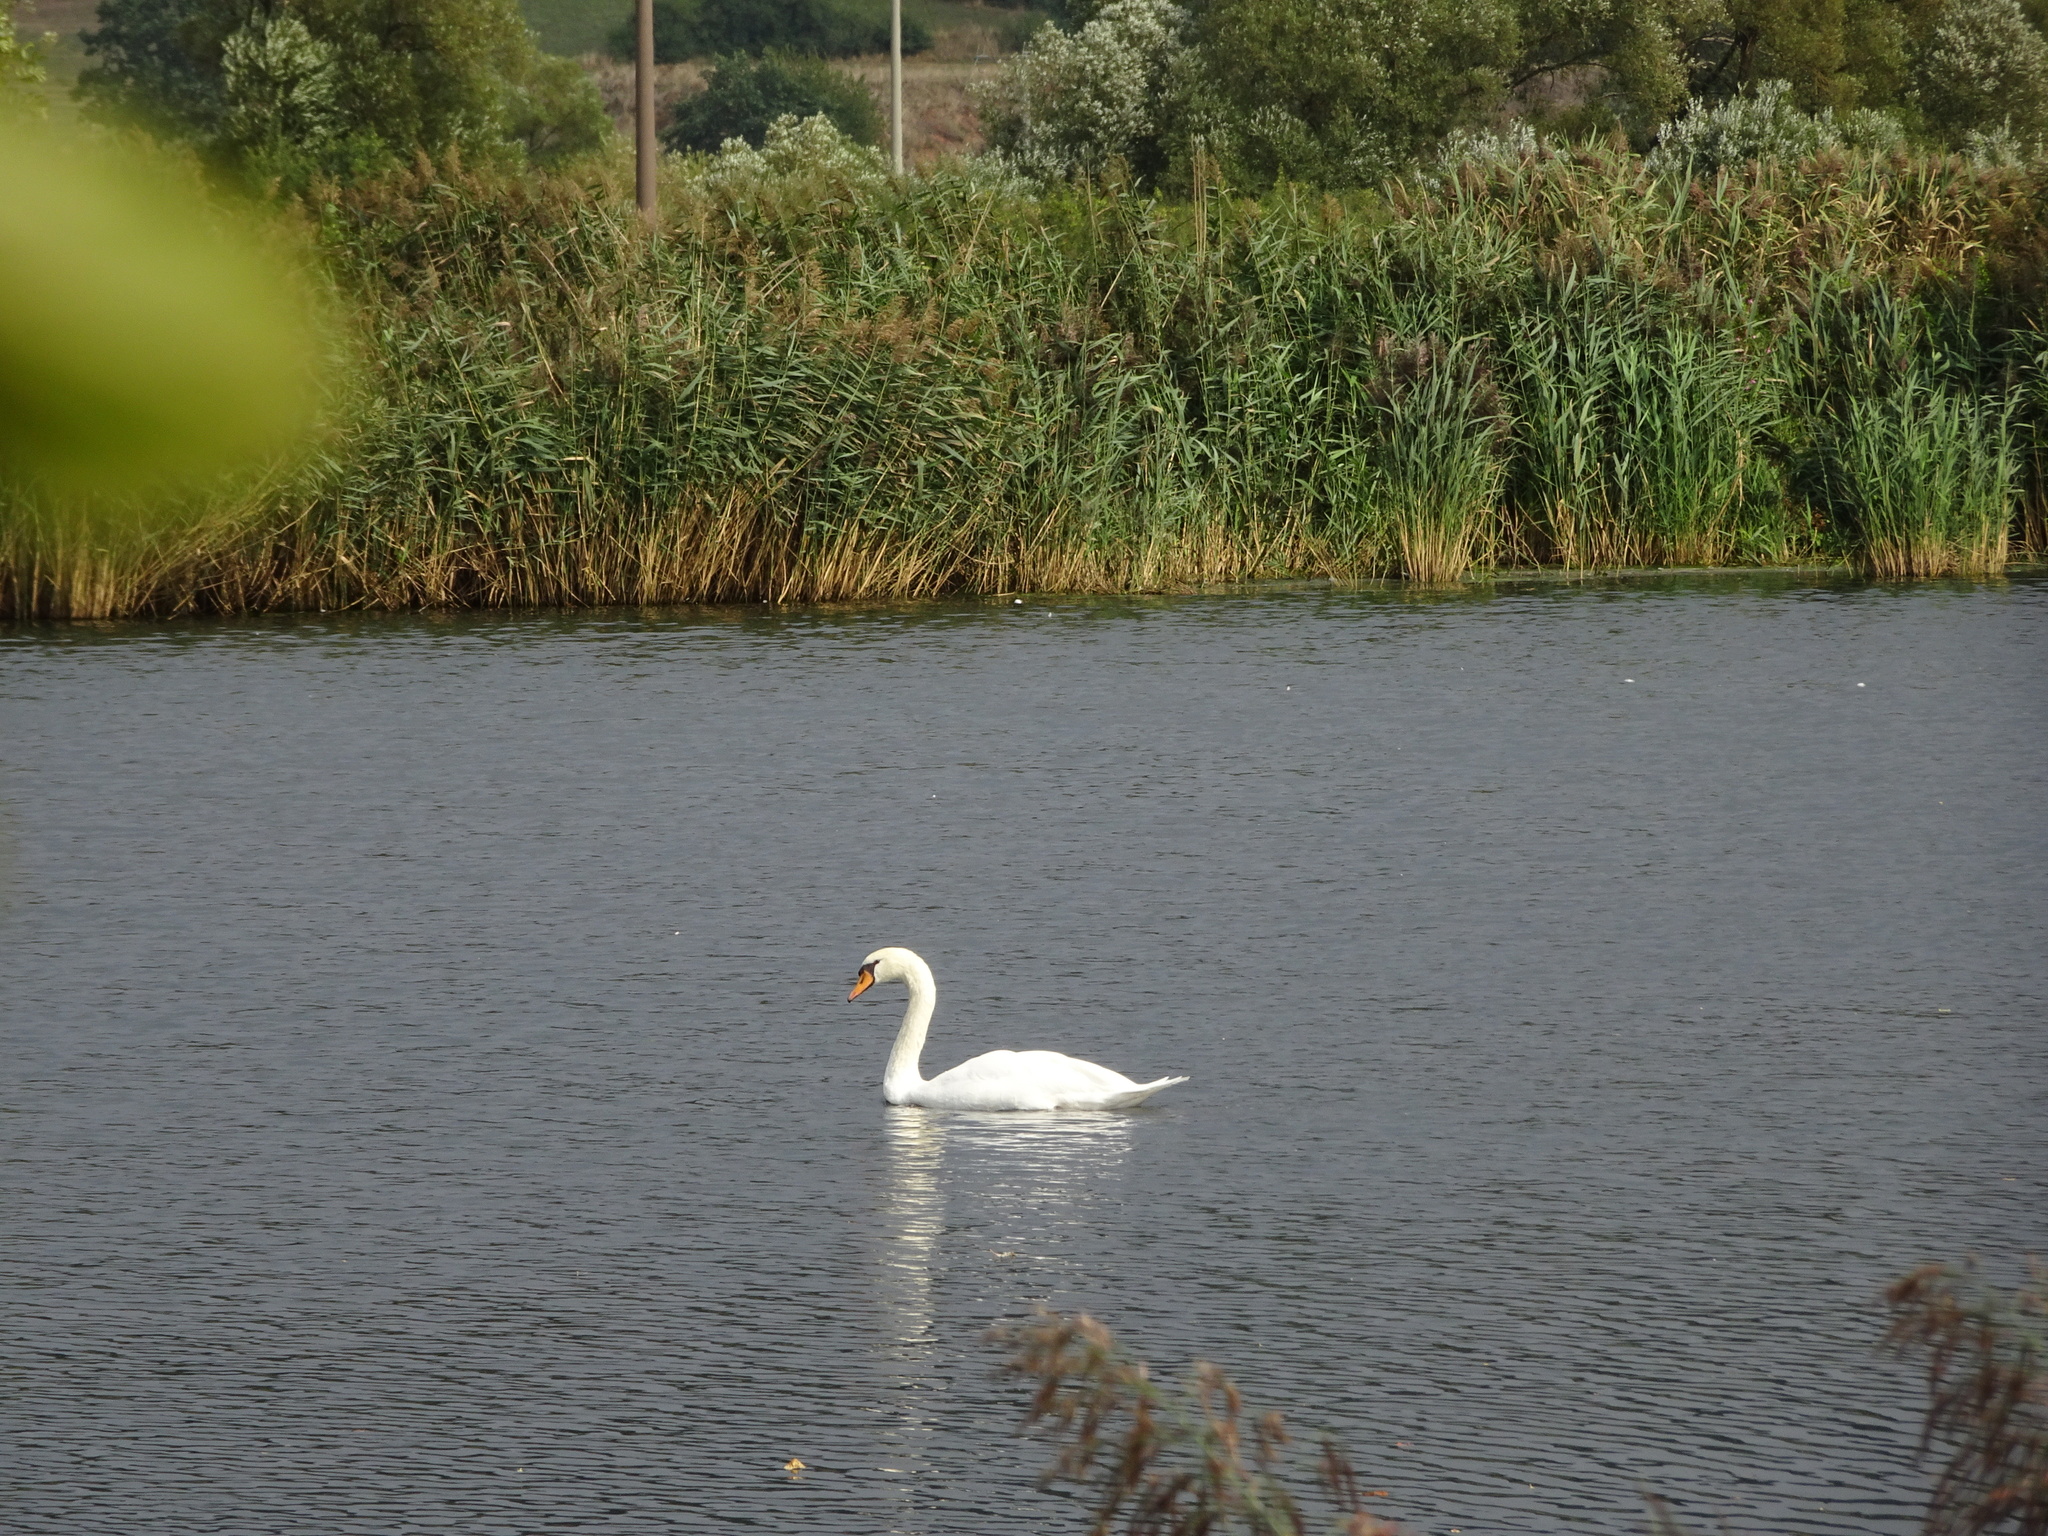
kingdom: Animalia
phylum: Chordata
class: Aves
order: Anseriformes
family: Anatidae
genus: Cygnus
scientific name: Cygnus olor
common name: Mute swan
